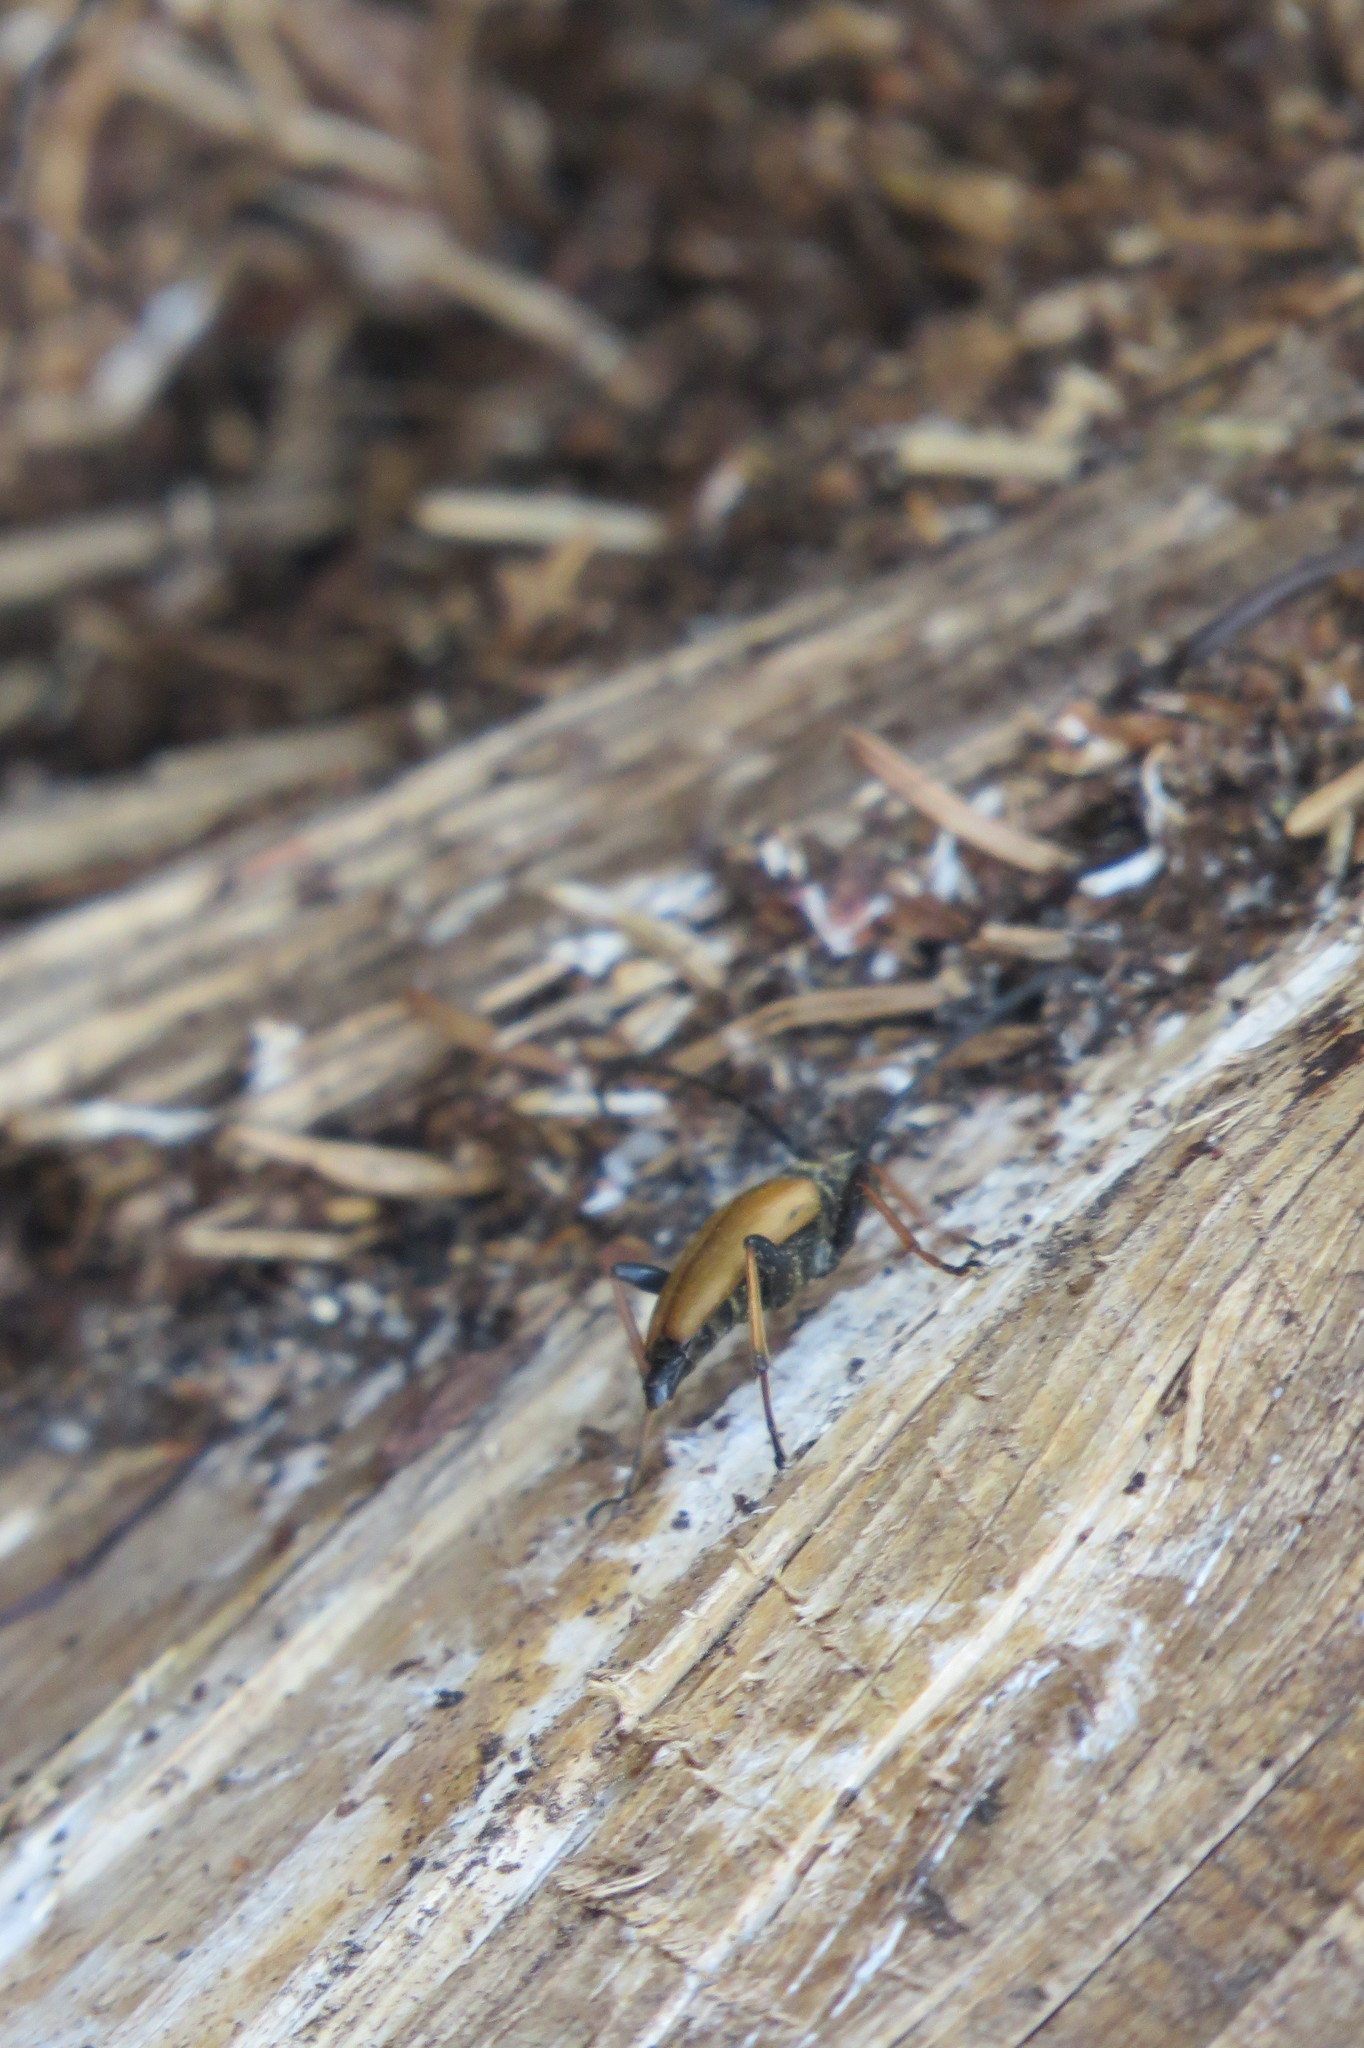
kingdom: Animalia
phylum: Arthropoda
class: Insecta
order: Coleoptera
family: Cerambycidae
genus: Stictoleptura
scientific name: Stictoleptura rubra
